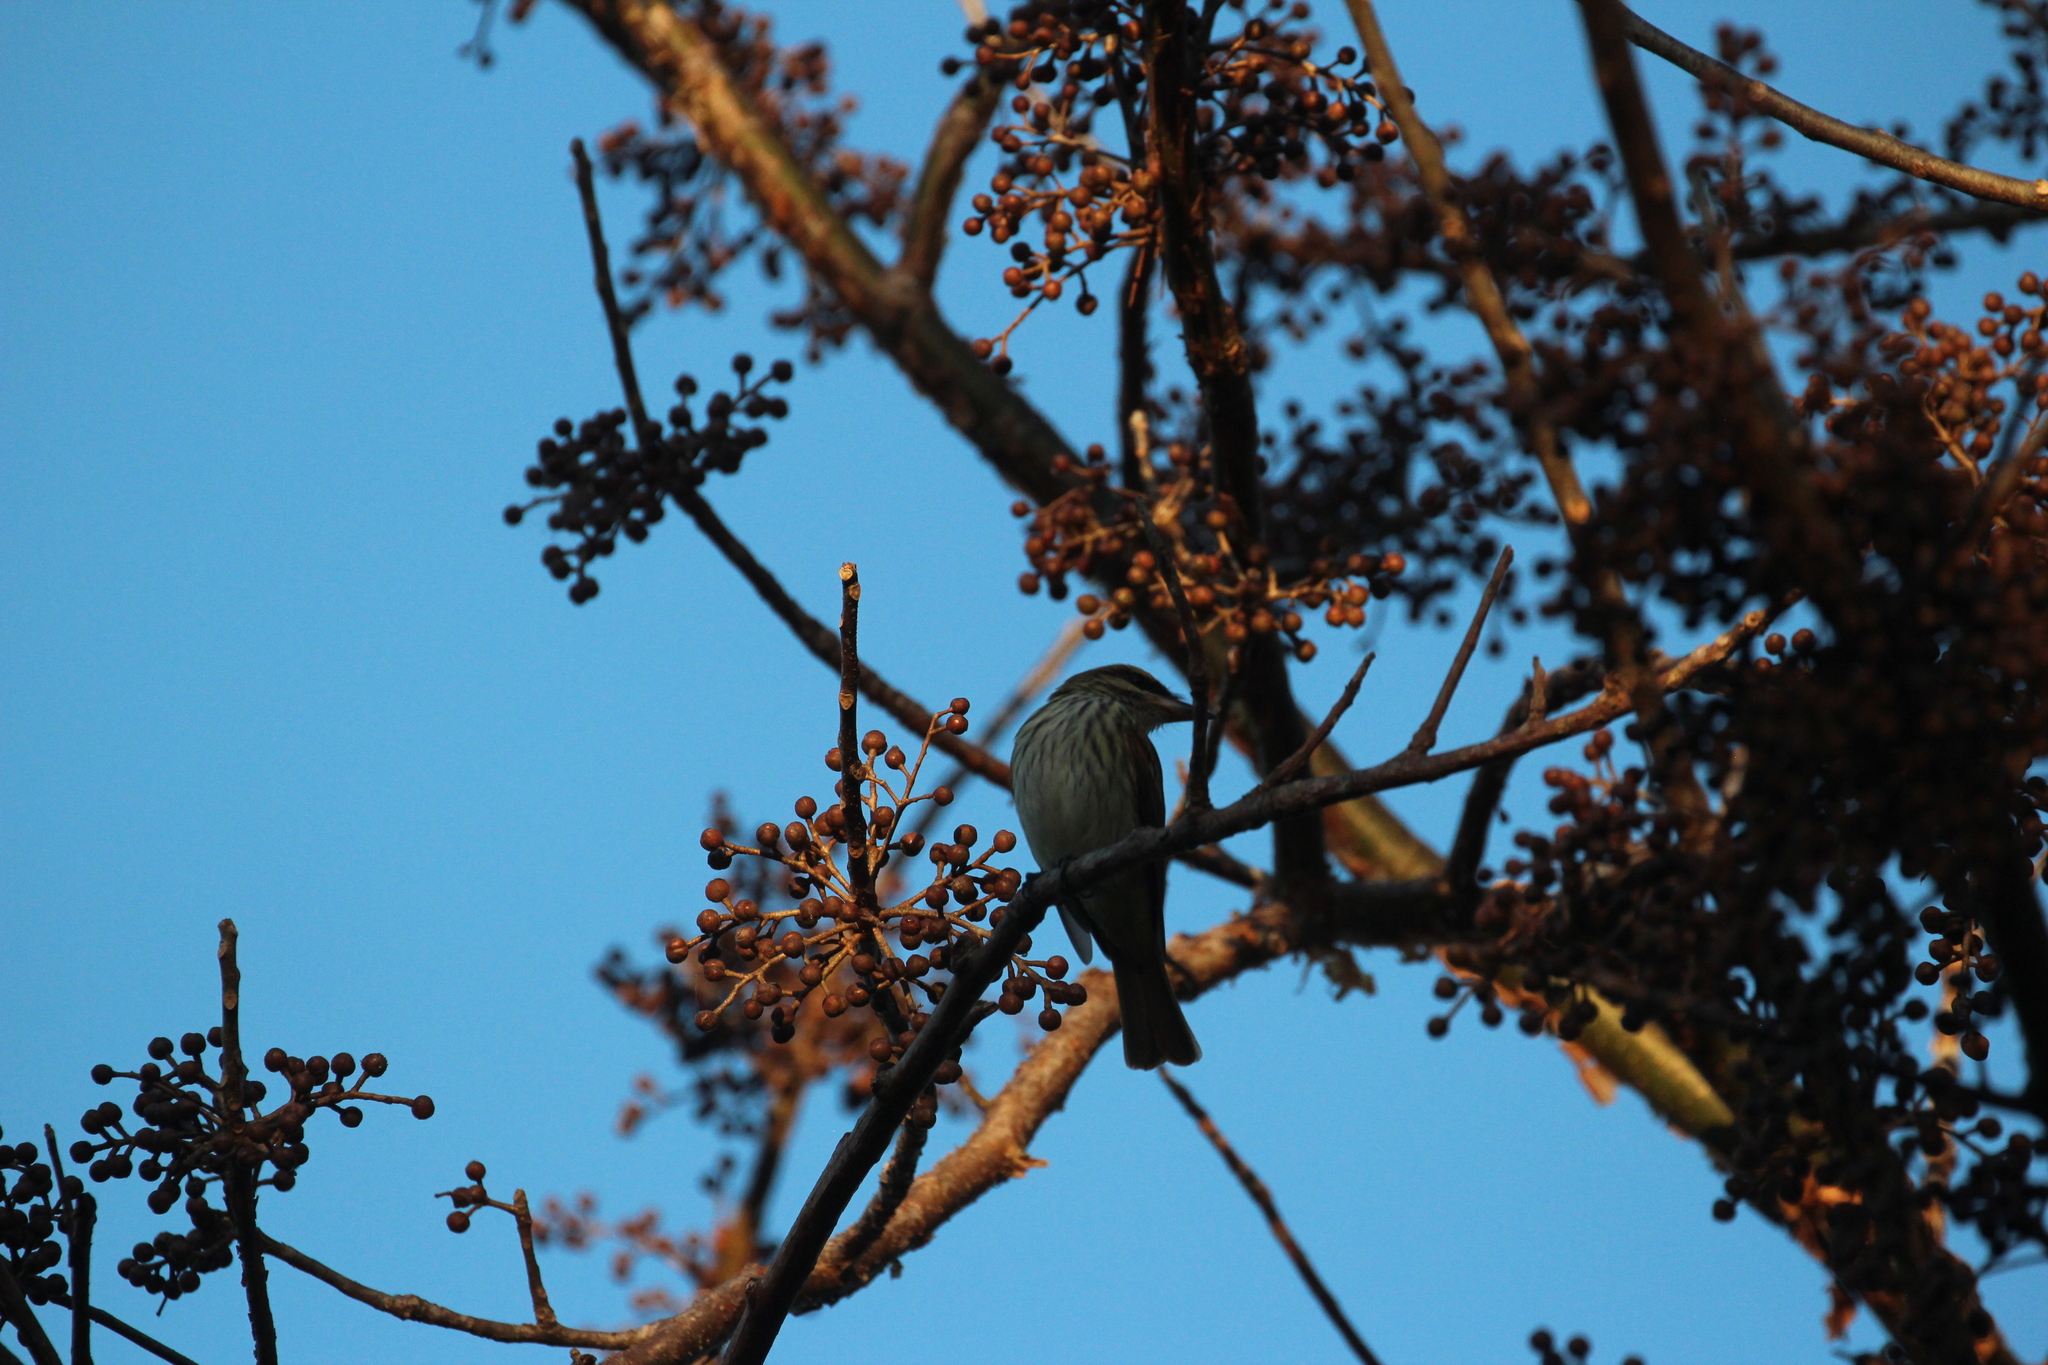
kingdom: Animalia
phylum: Chordata
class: Aves
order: Passeriformes
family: Tyrannidae
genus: Myiodynastes
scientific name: Myiodynastes maculatus
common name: Streaked flycatcher
